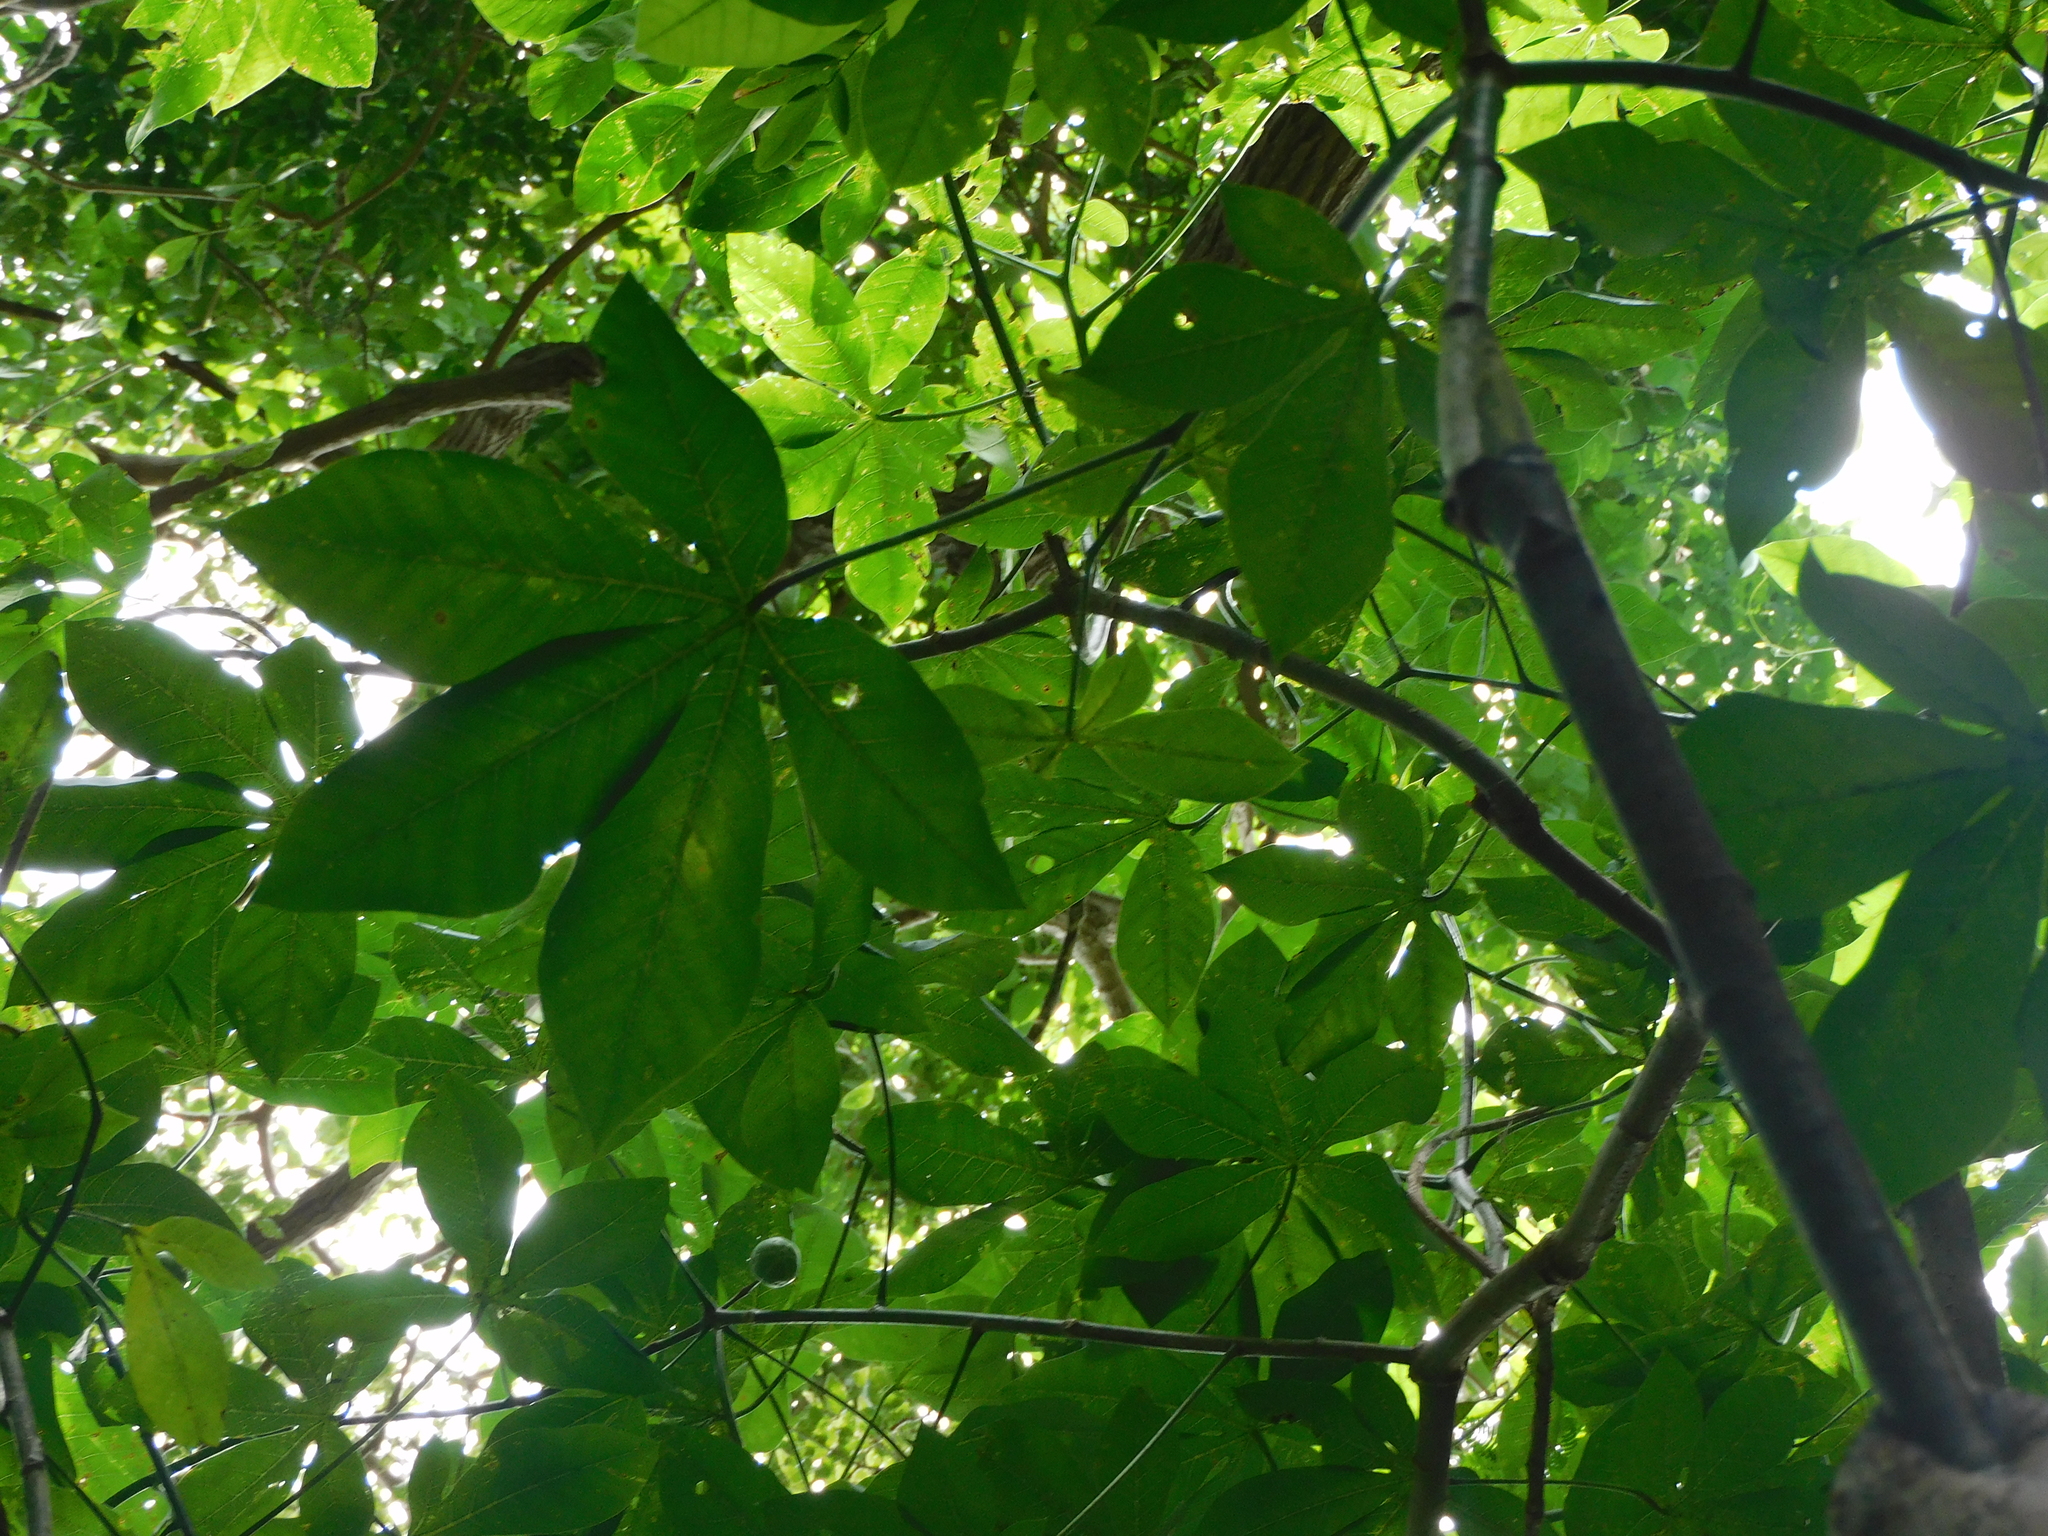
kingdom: Plantae
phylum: Tracheophyta
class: Magnoliopsida
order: Malpighiales
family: Euphorbiaceae
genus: Manihot
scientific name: Manihot carthagenensis
